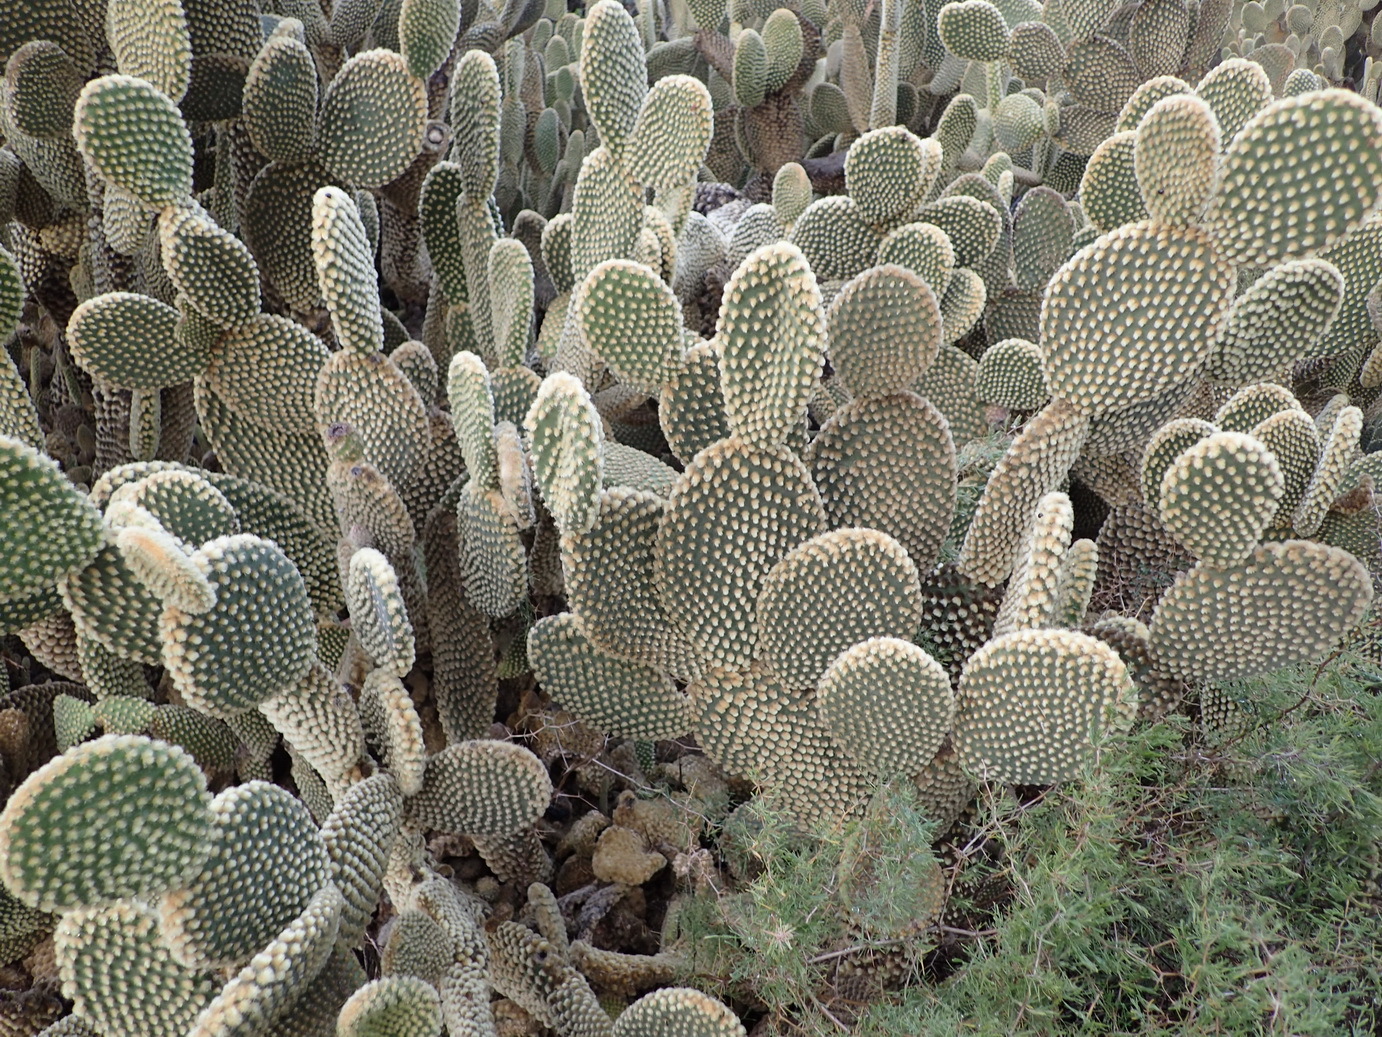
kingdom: Plantae
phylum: Tracheophyta
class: Magnoliopsida
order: Caryophyllales
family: Cactaceae
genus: Opuntia
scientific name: Opuntia microdasys
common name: Angel's-wings
